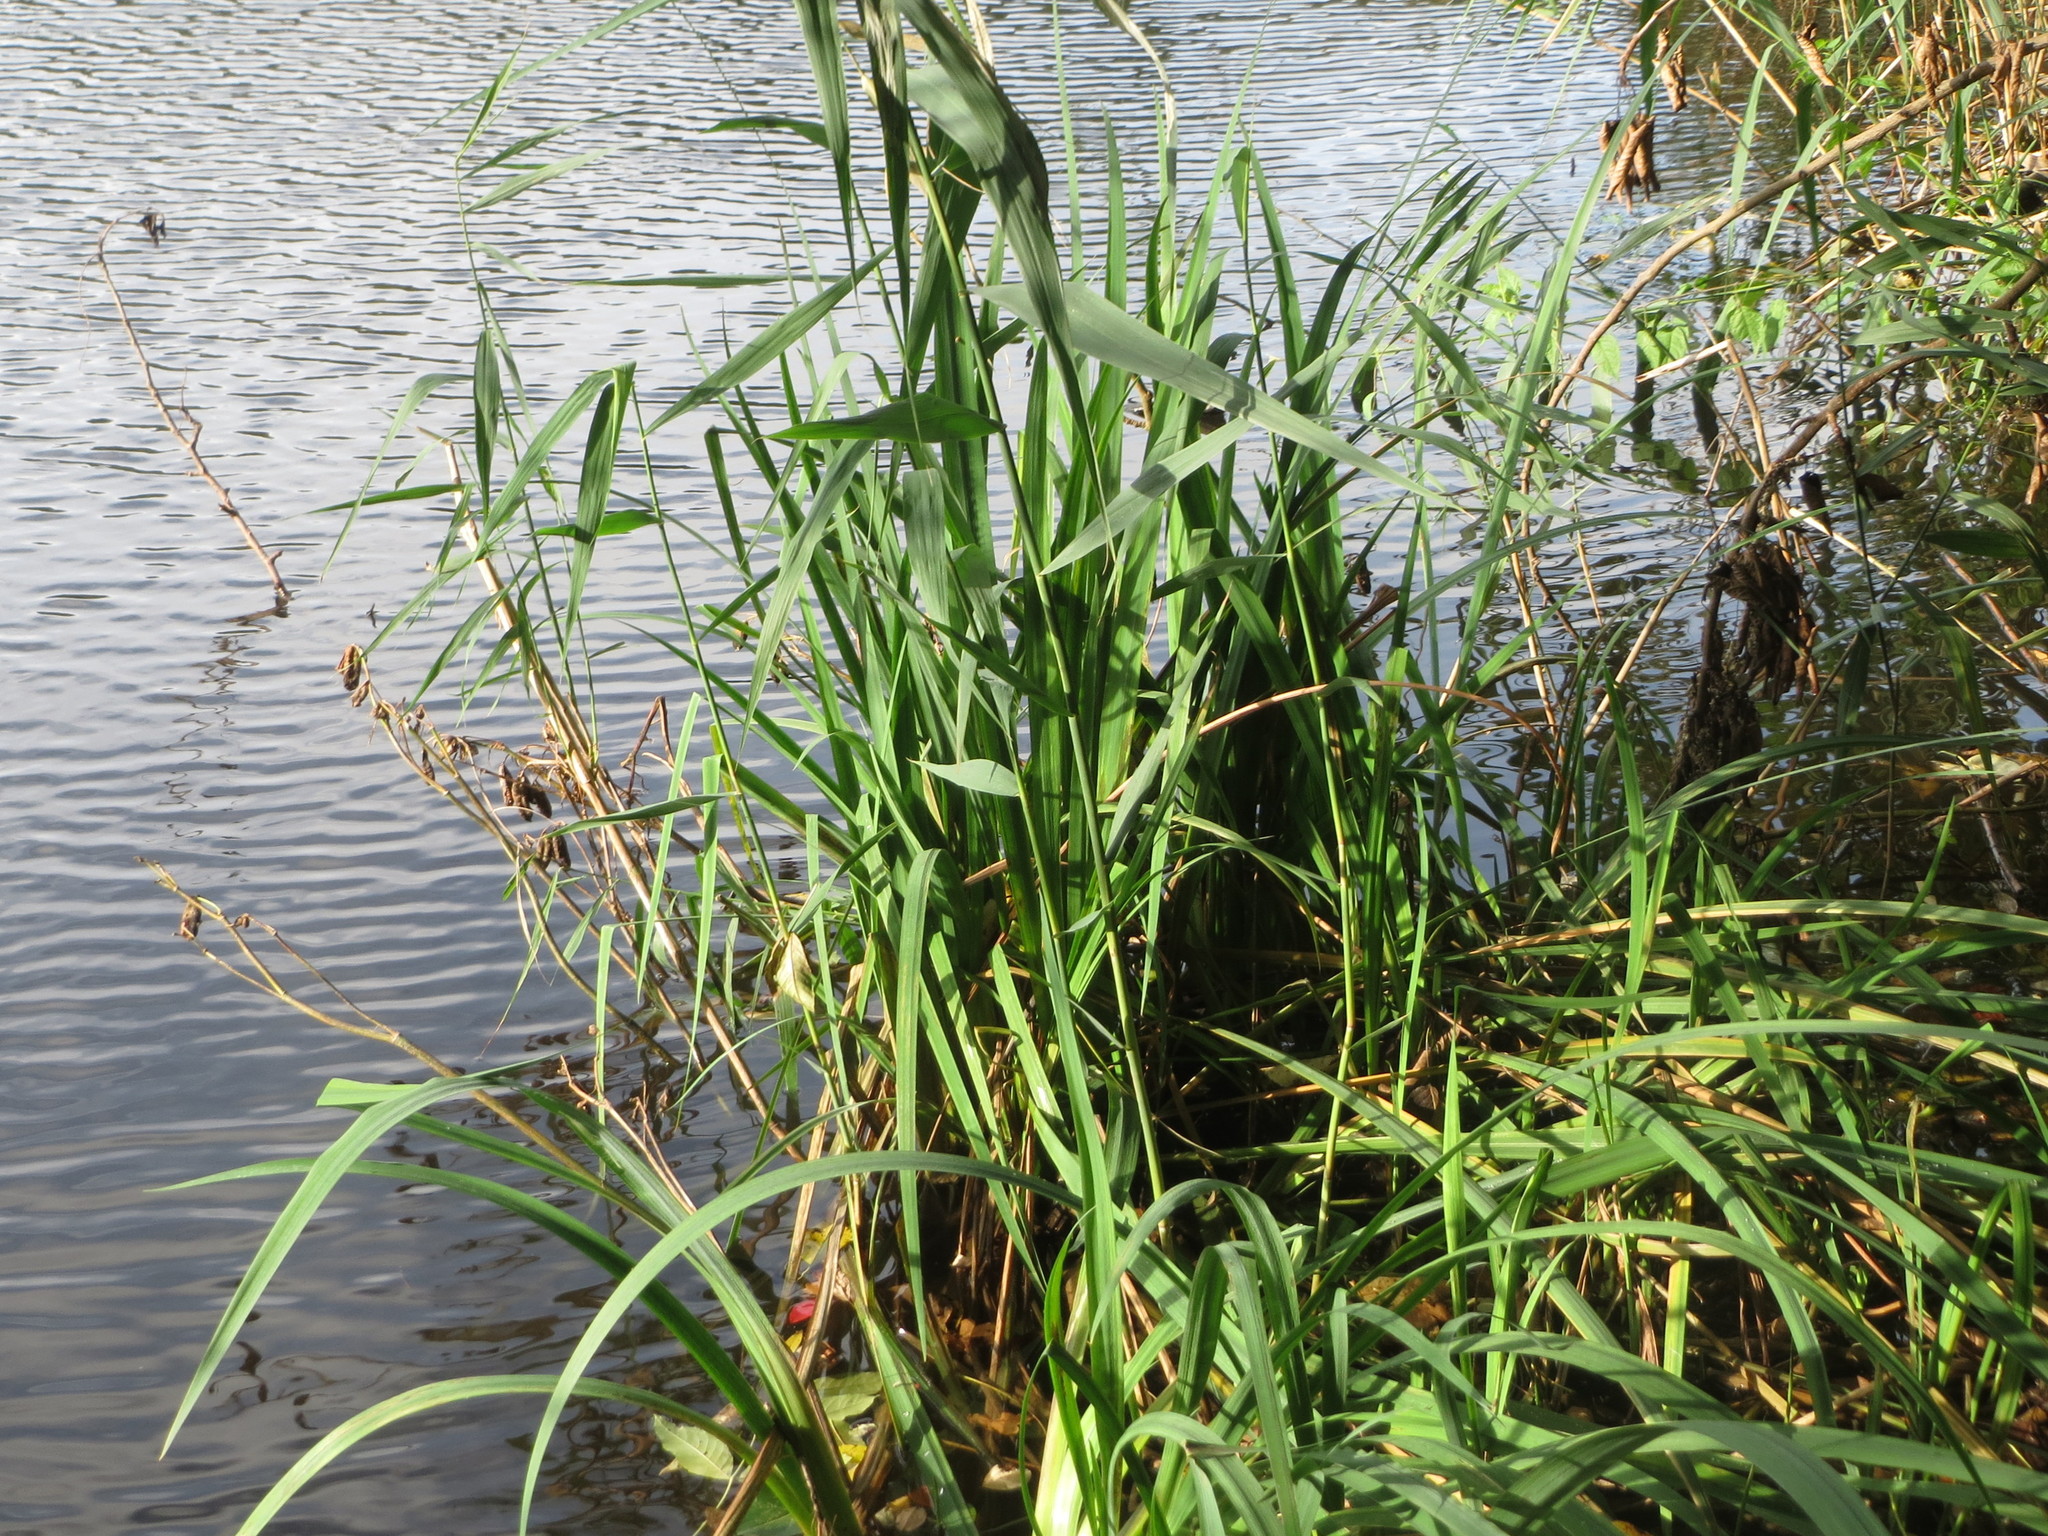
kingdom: Plantae
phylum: Tracheophyta
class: Liliopsida
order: Asparagales
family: Iridaceae
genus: Iris
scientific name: Iris pseudacorus
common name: Yellow flag
